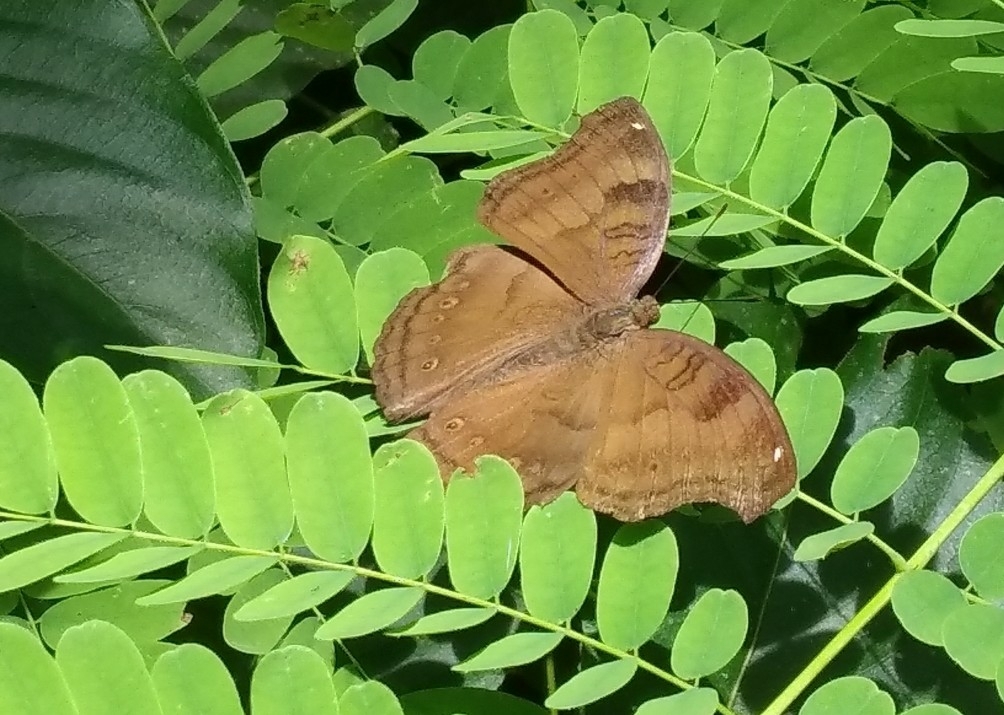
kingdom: Animalia
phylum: Arthropoda
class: Insecta
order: Lepidoptera
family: Nymphalidae
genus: Junonia
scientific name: Junonia iphita
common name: Chocolate pansy
